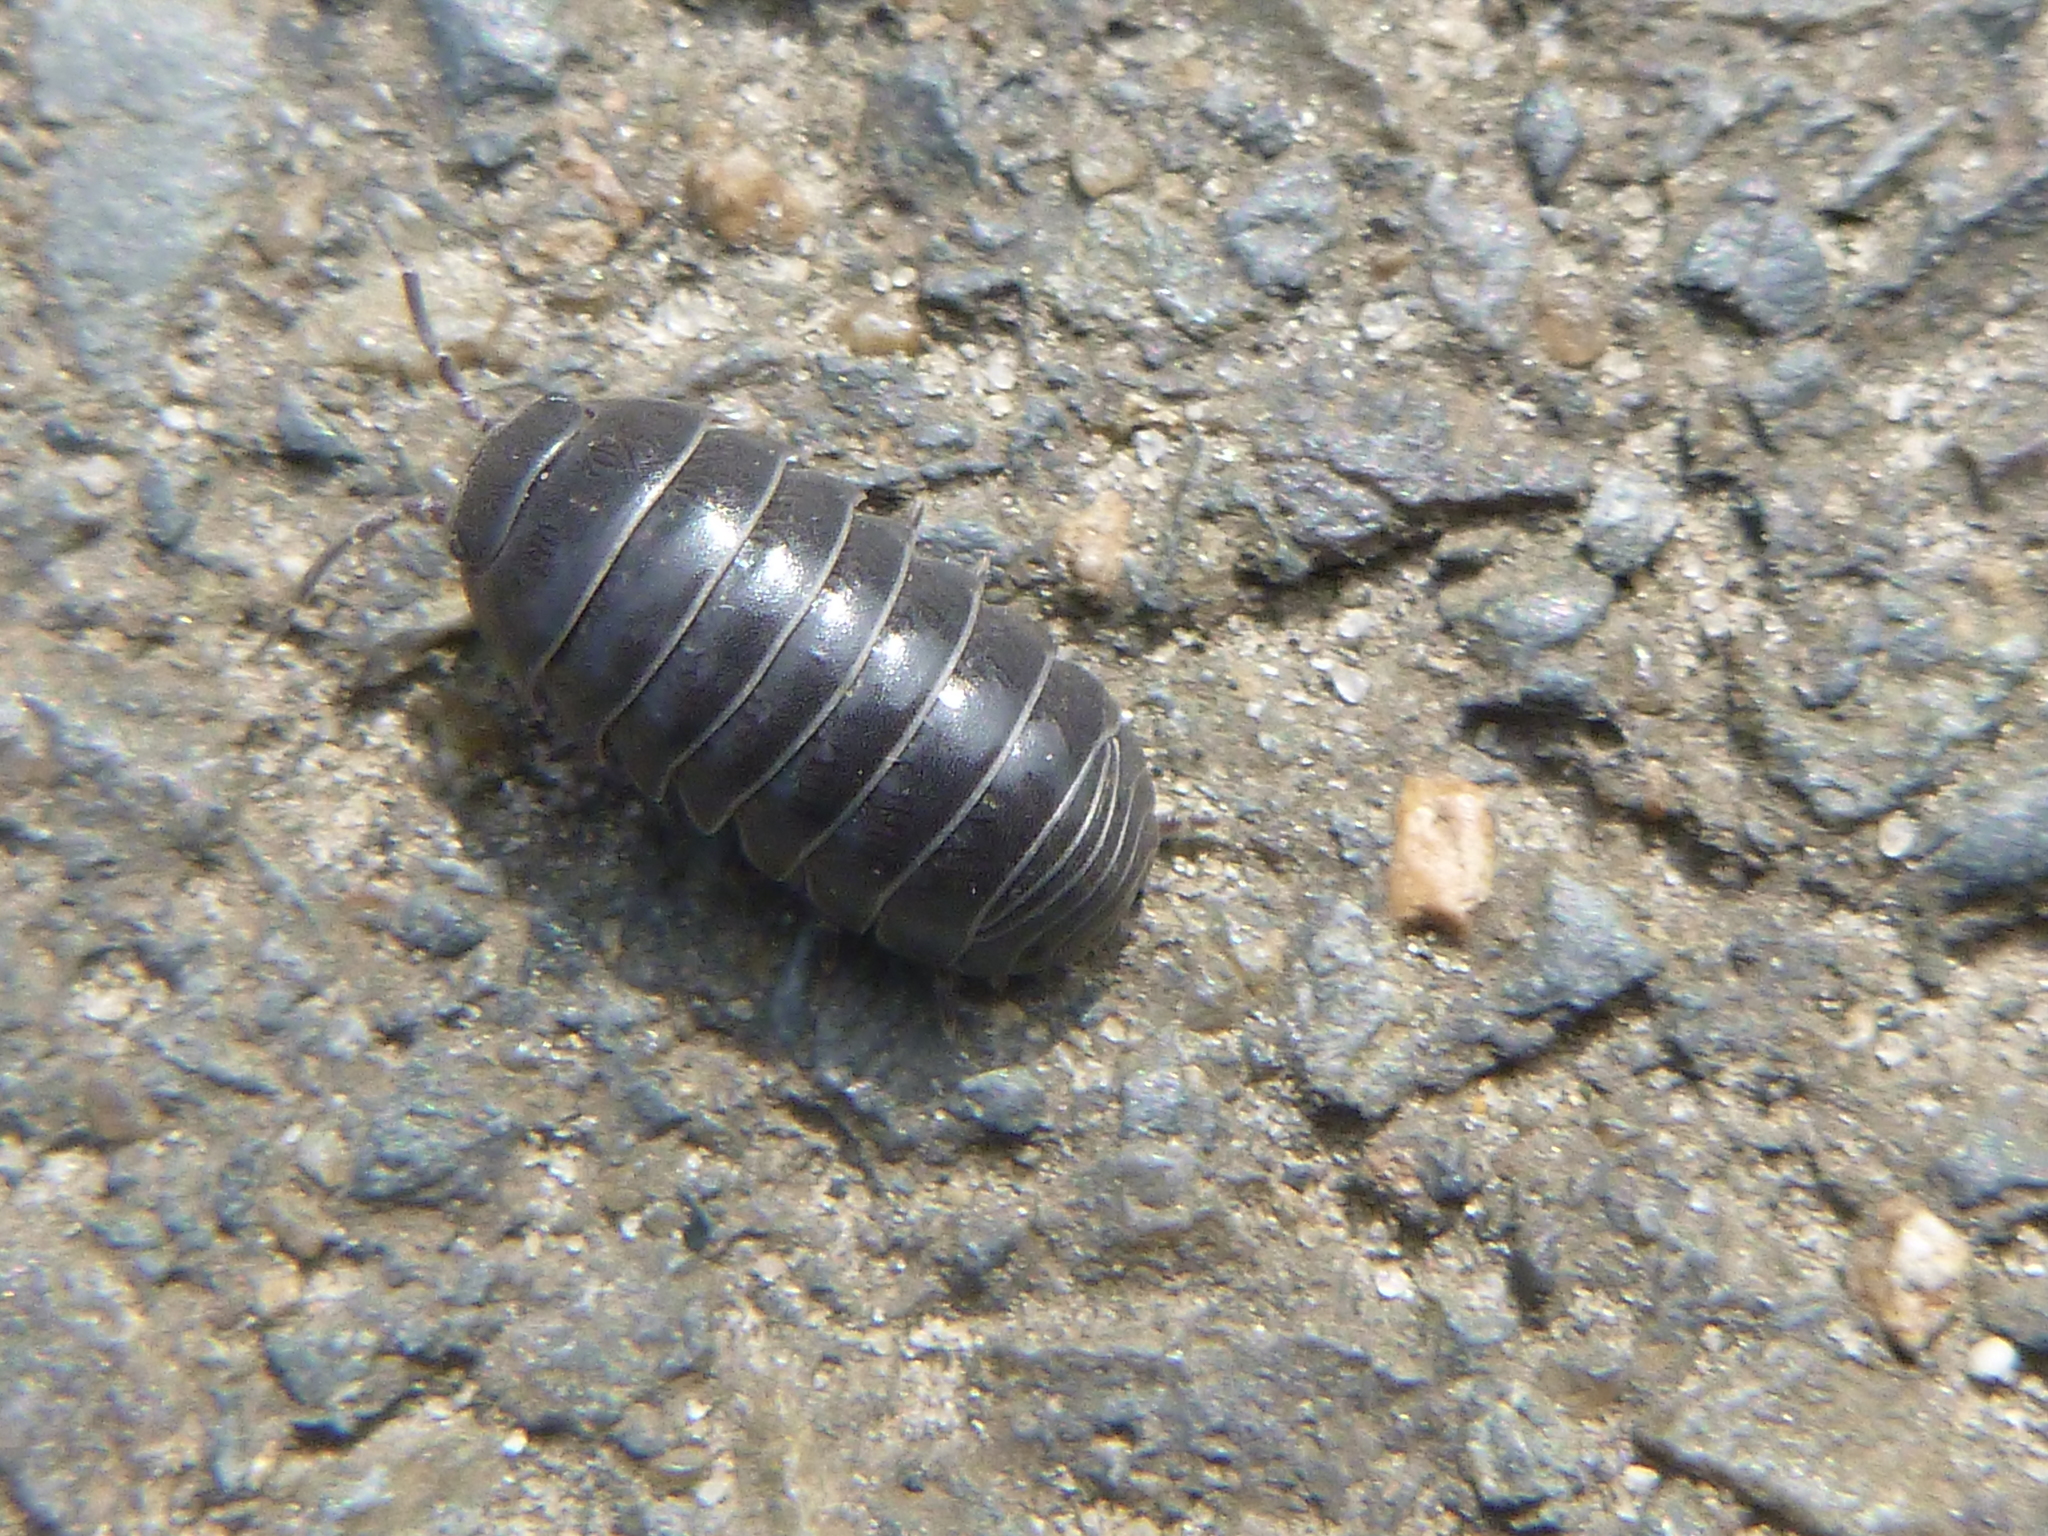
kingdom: Animalia
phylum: Arthropoda
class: Malacostraca
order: Isopoda
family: Armadillidiidae
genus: Armadillidium
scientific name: Armadillidium vulgare
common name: Common pill woodlouse
